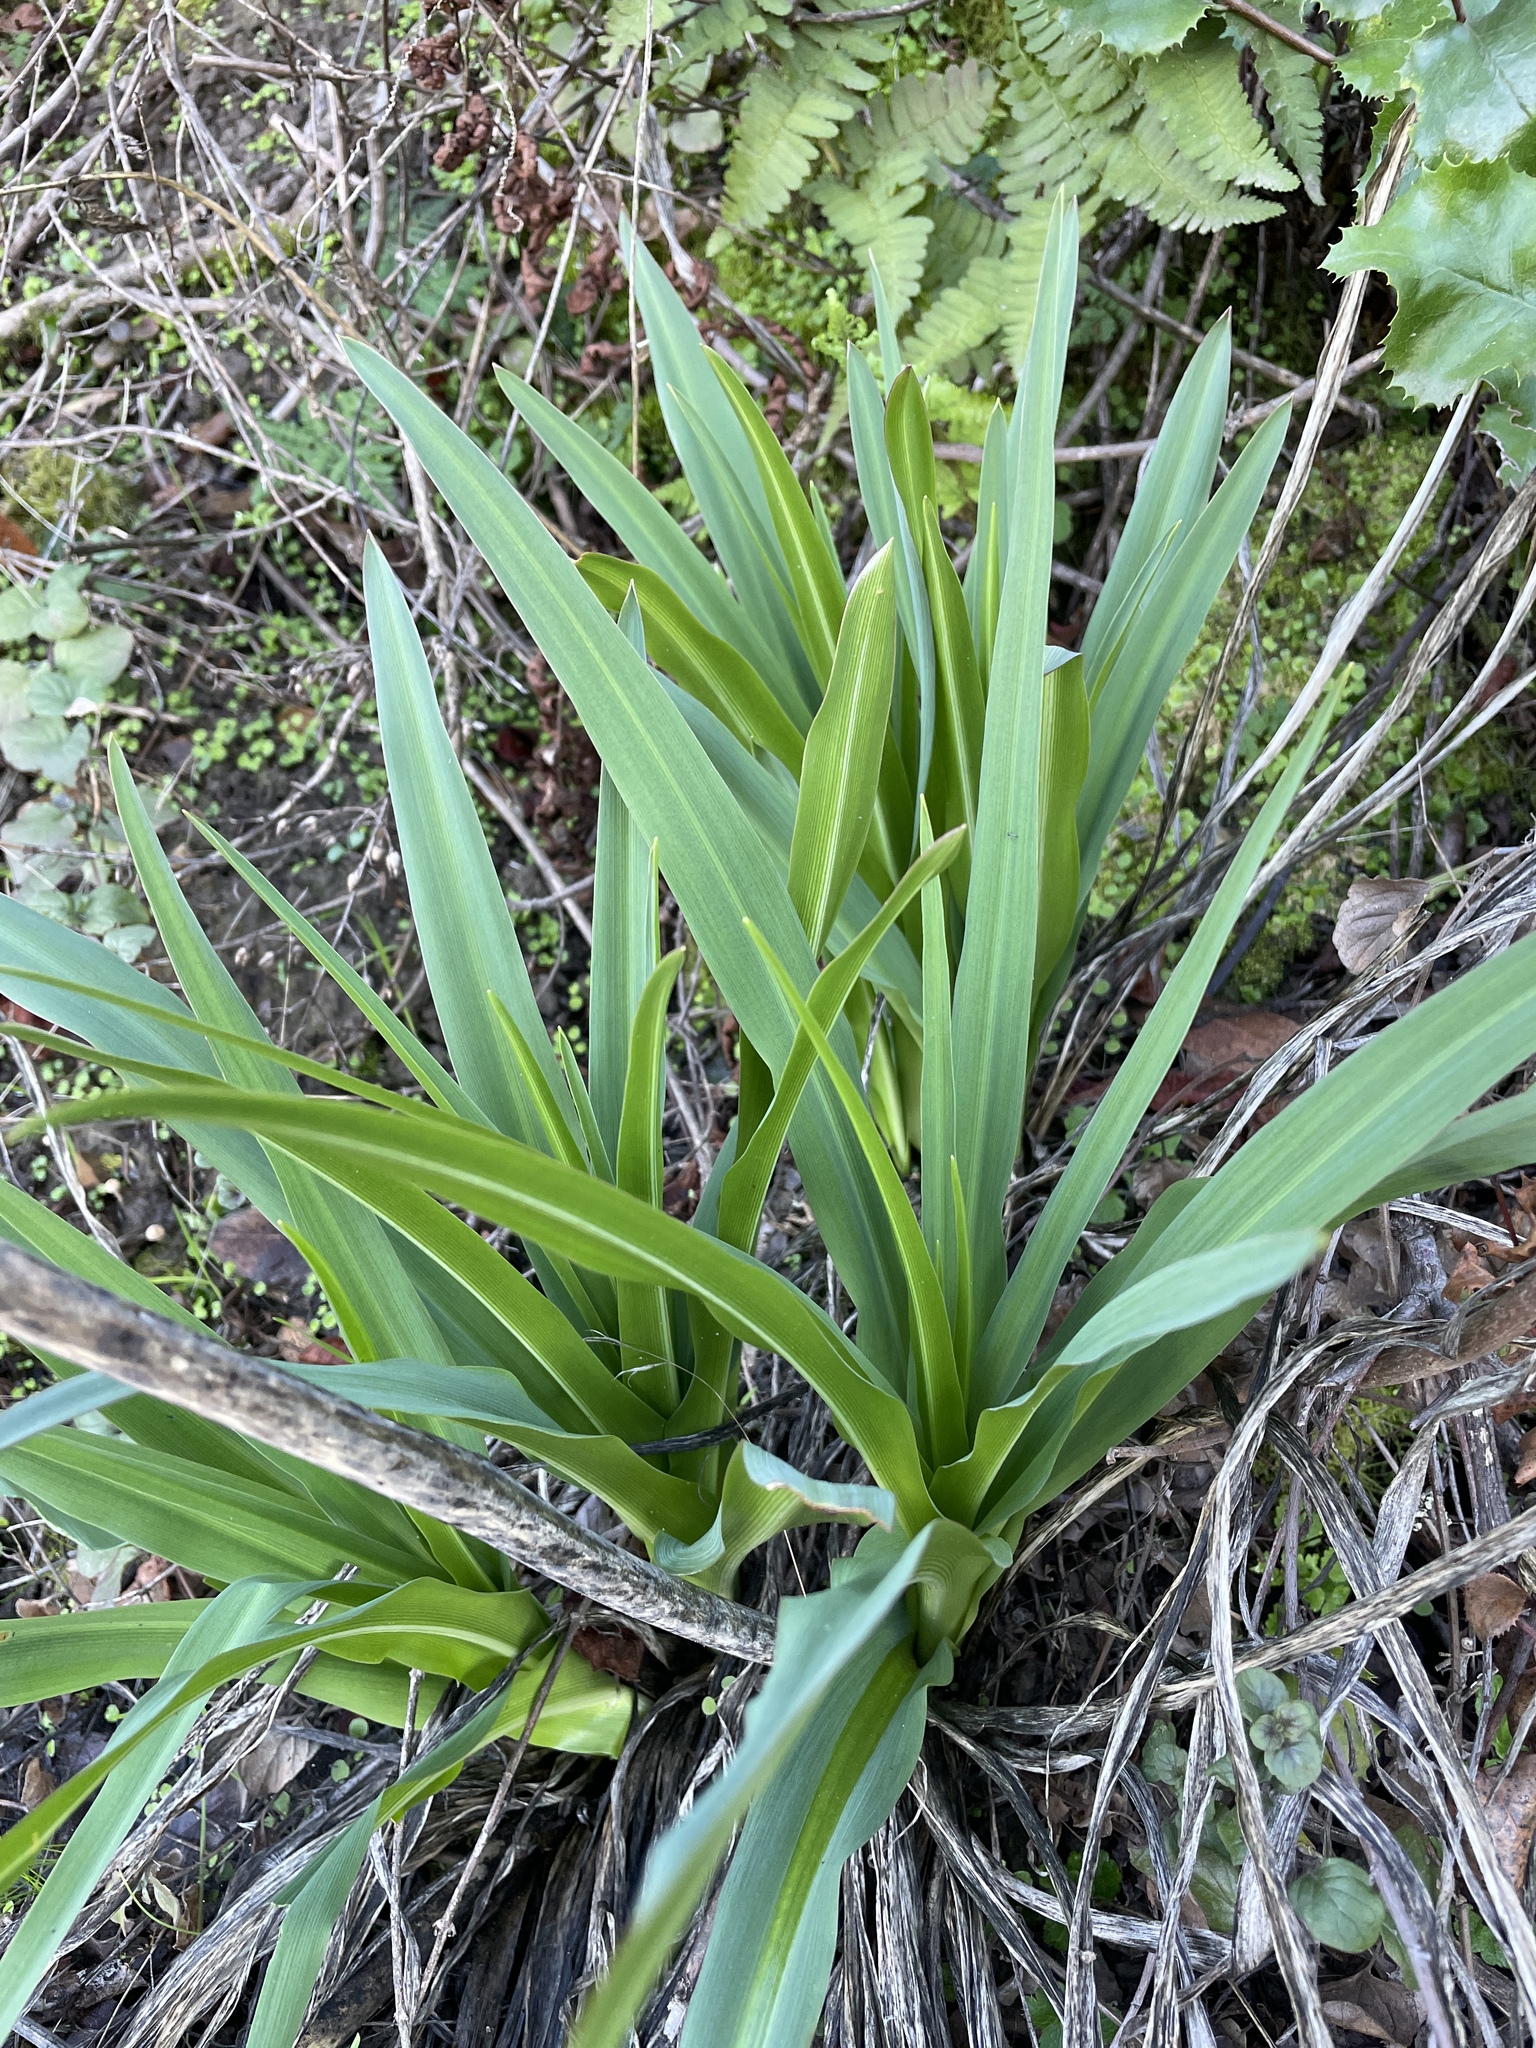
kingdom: Plantae
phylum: Tracheophyta
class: Liliopsida
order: Asparagales
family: Asparagaceae
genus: Chlorogalum
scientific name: Chlorogalum pomeridianum
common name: Amole
